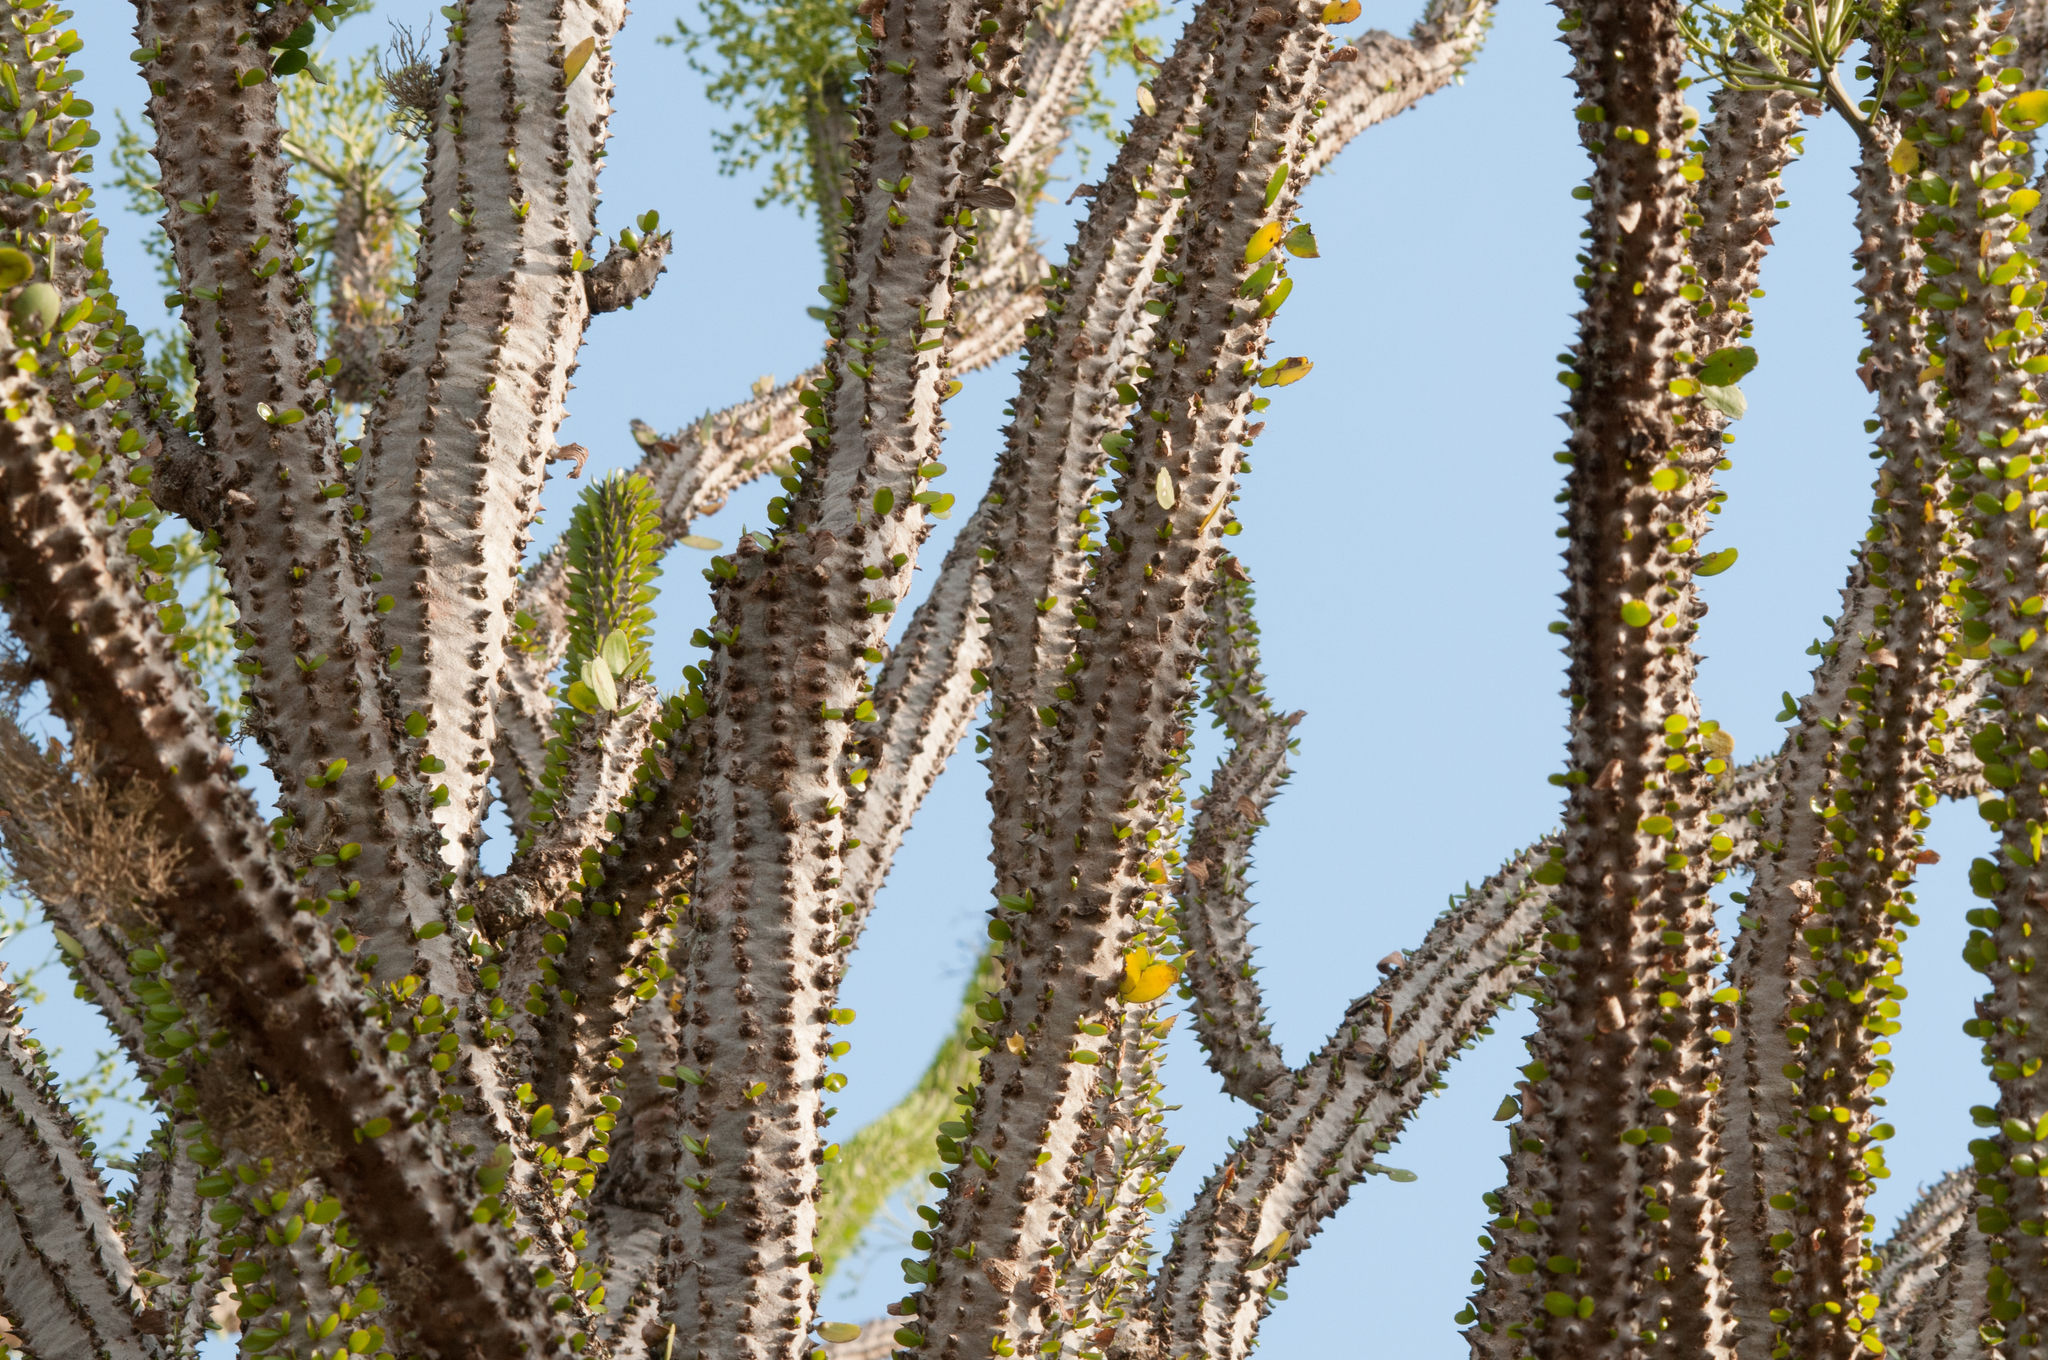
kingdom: Plantae
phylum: Tracheophyta
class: Magnoliopsida
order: Caryophyllales
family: Didiereaceae
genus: Alluaudia
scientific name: Alluaudia procera
